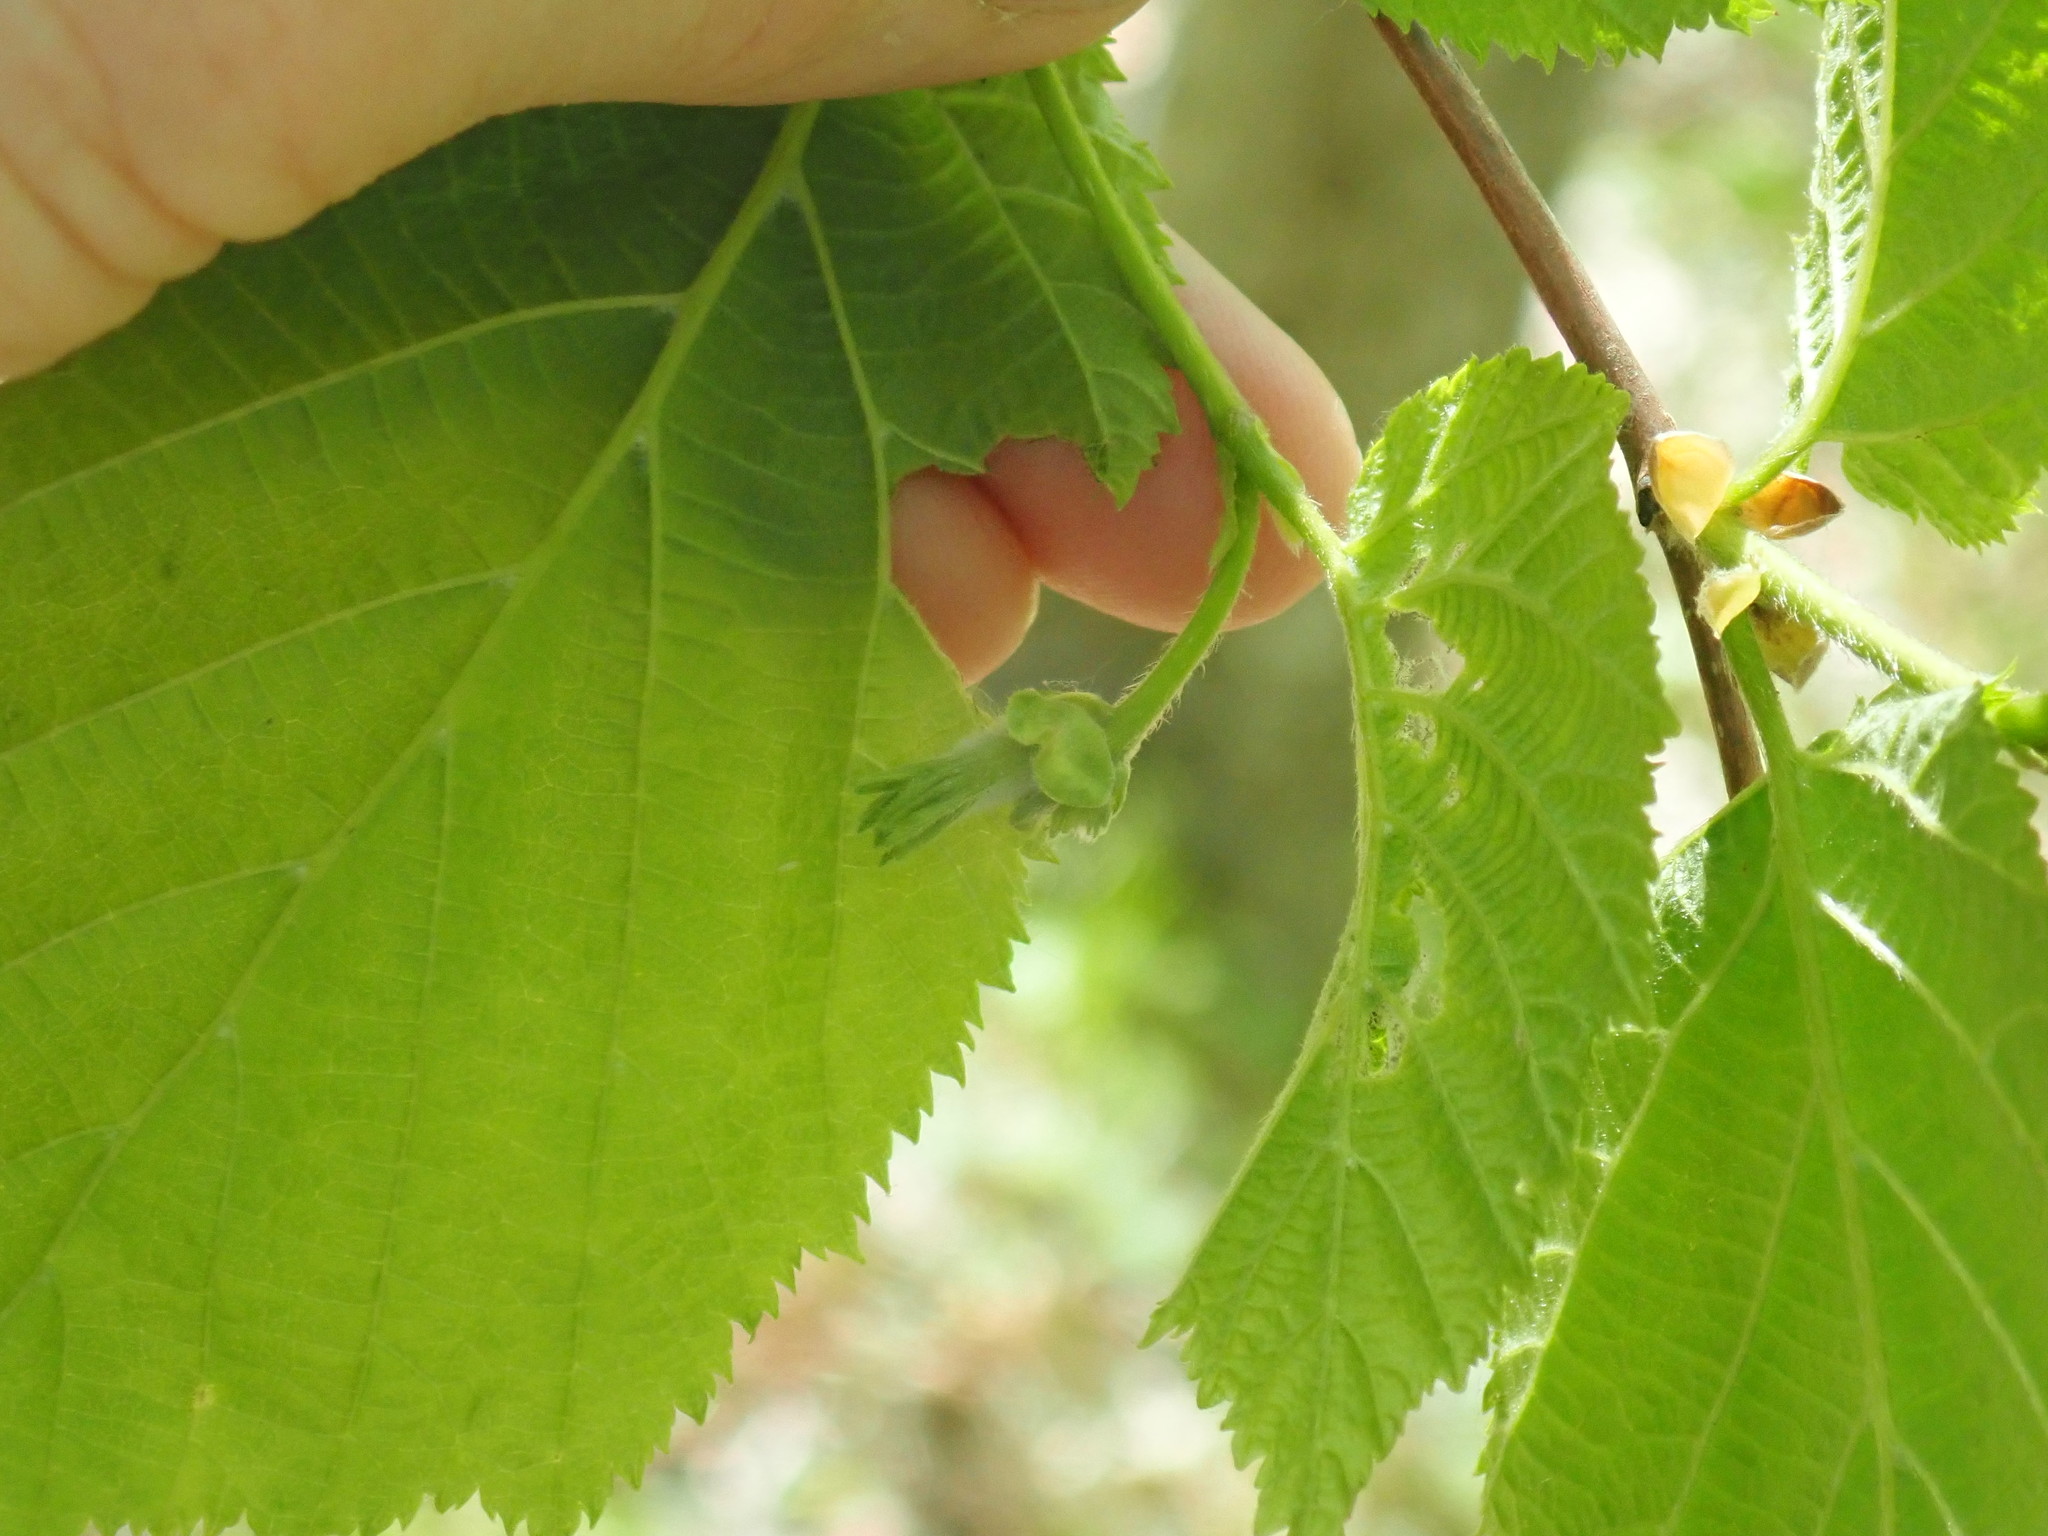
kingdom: Plantae
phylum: Tracheophyta
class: Magnoliopsida
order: Fagales
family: Betulaceae
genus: Corylus
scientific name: Corylus cornuta
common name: Beaked hazel
